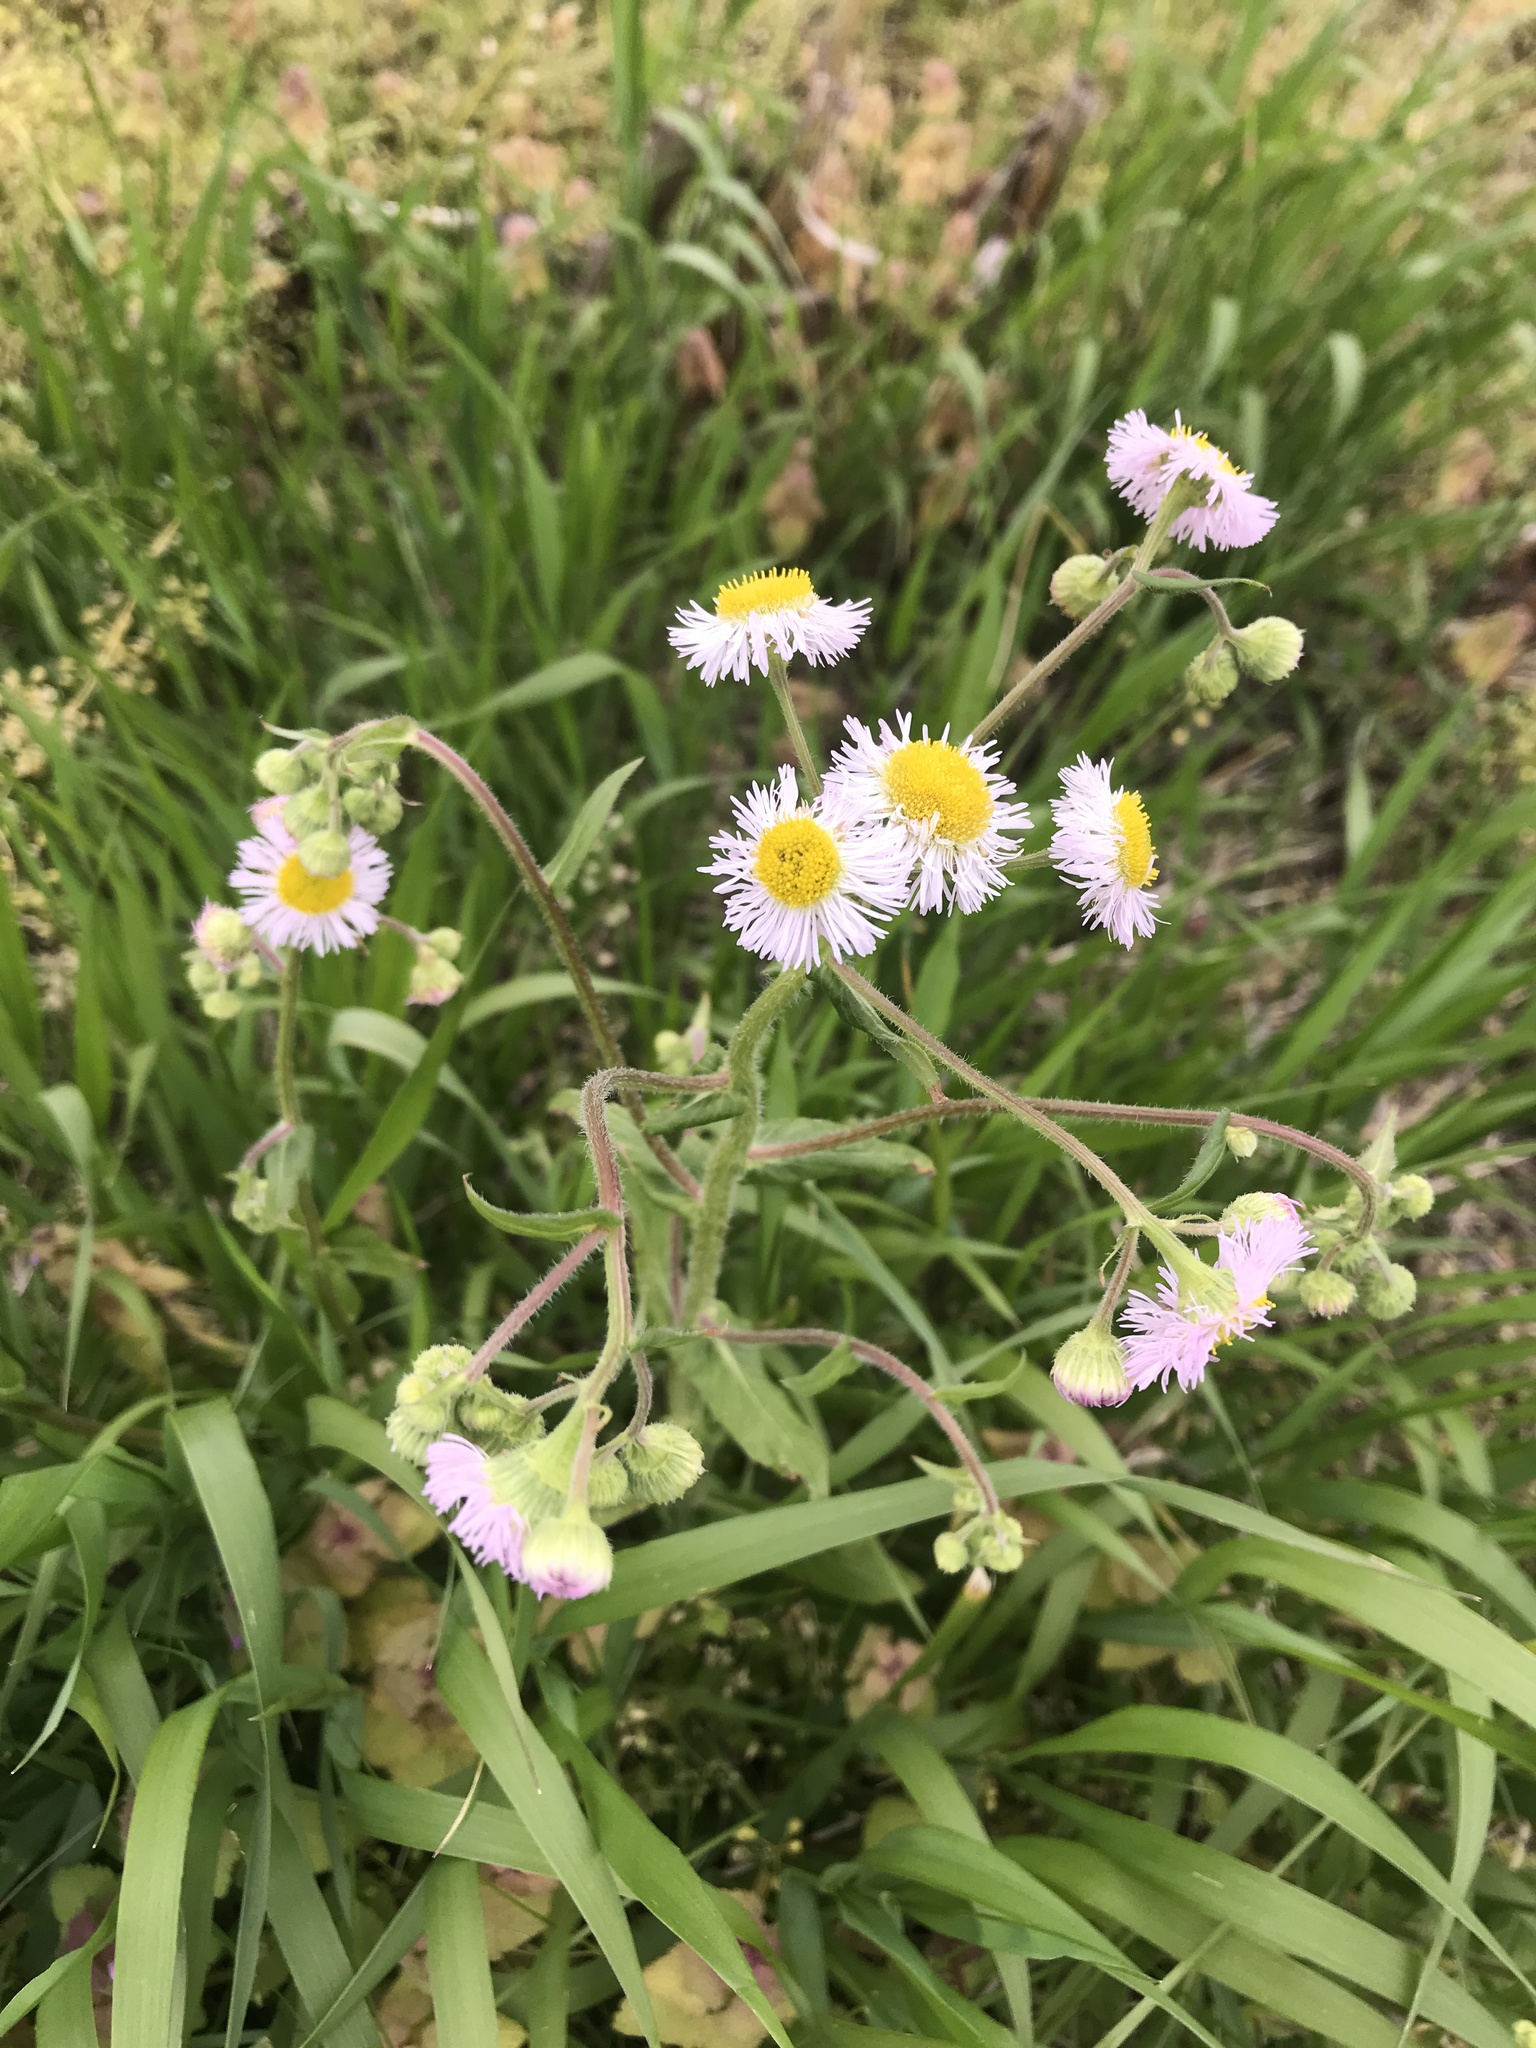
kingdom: Plantae
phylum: Tracheophyta
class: Magnoliopsida
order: Asterales
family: Asteraceae
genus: Erigeron
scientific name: Erigeron philadelphicus
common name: Robin's-plantain
